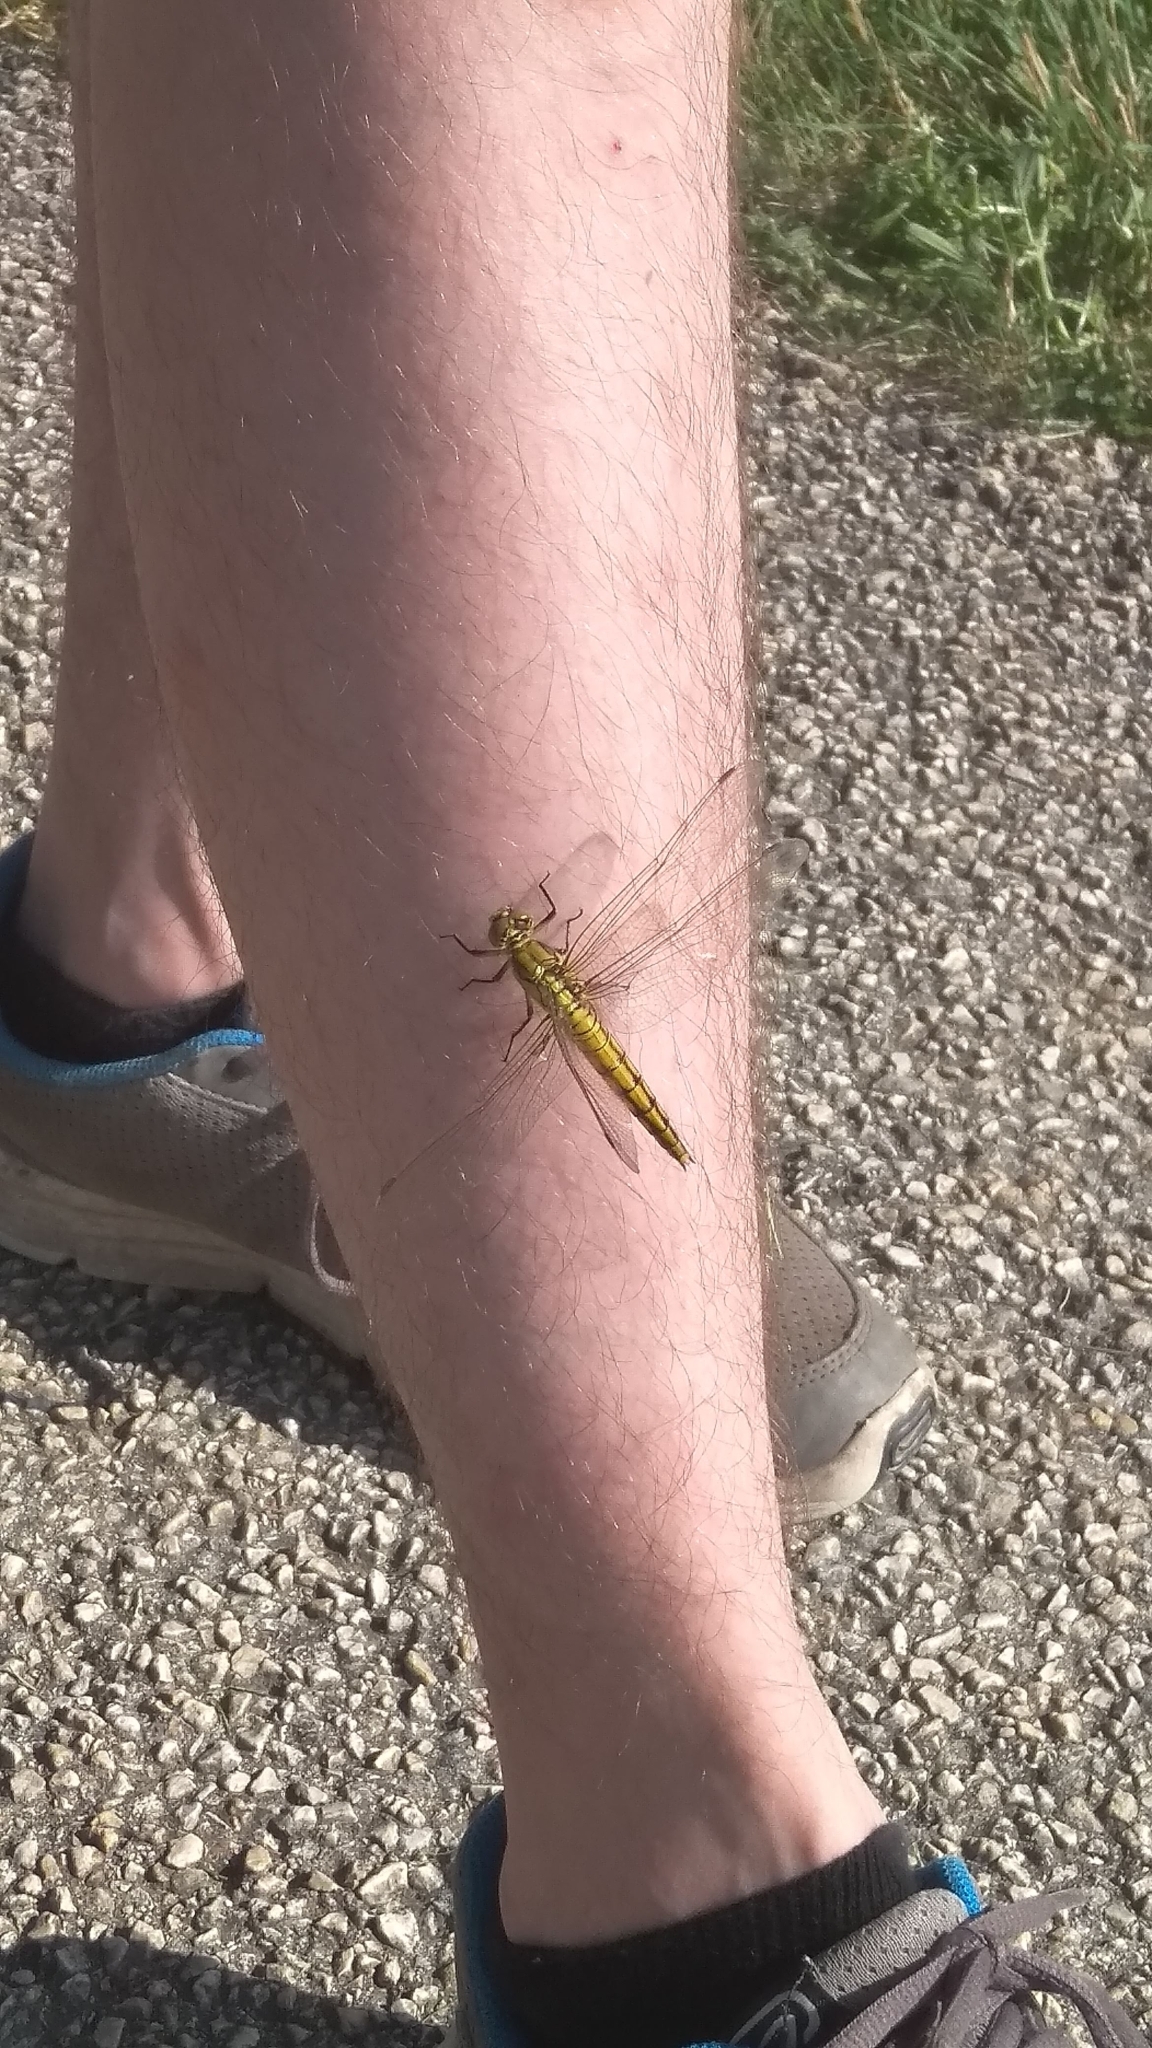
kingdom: Animalia
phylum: Arthropoda
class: Insecta
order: Odonata
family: Libellulidae
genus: Orthetrum
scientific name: Orthetrum cancellatum
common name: Black-tailed skimmer
